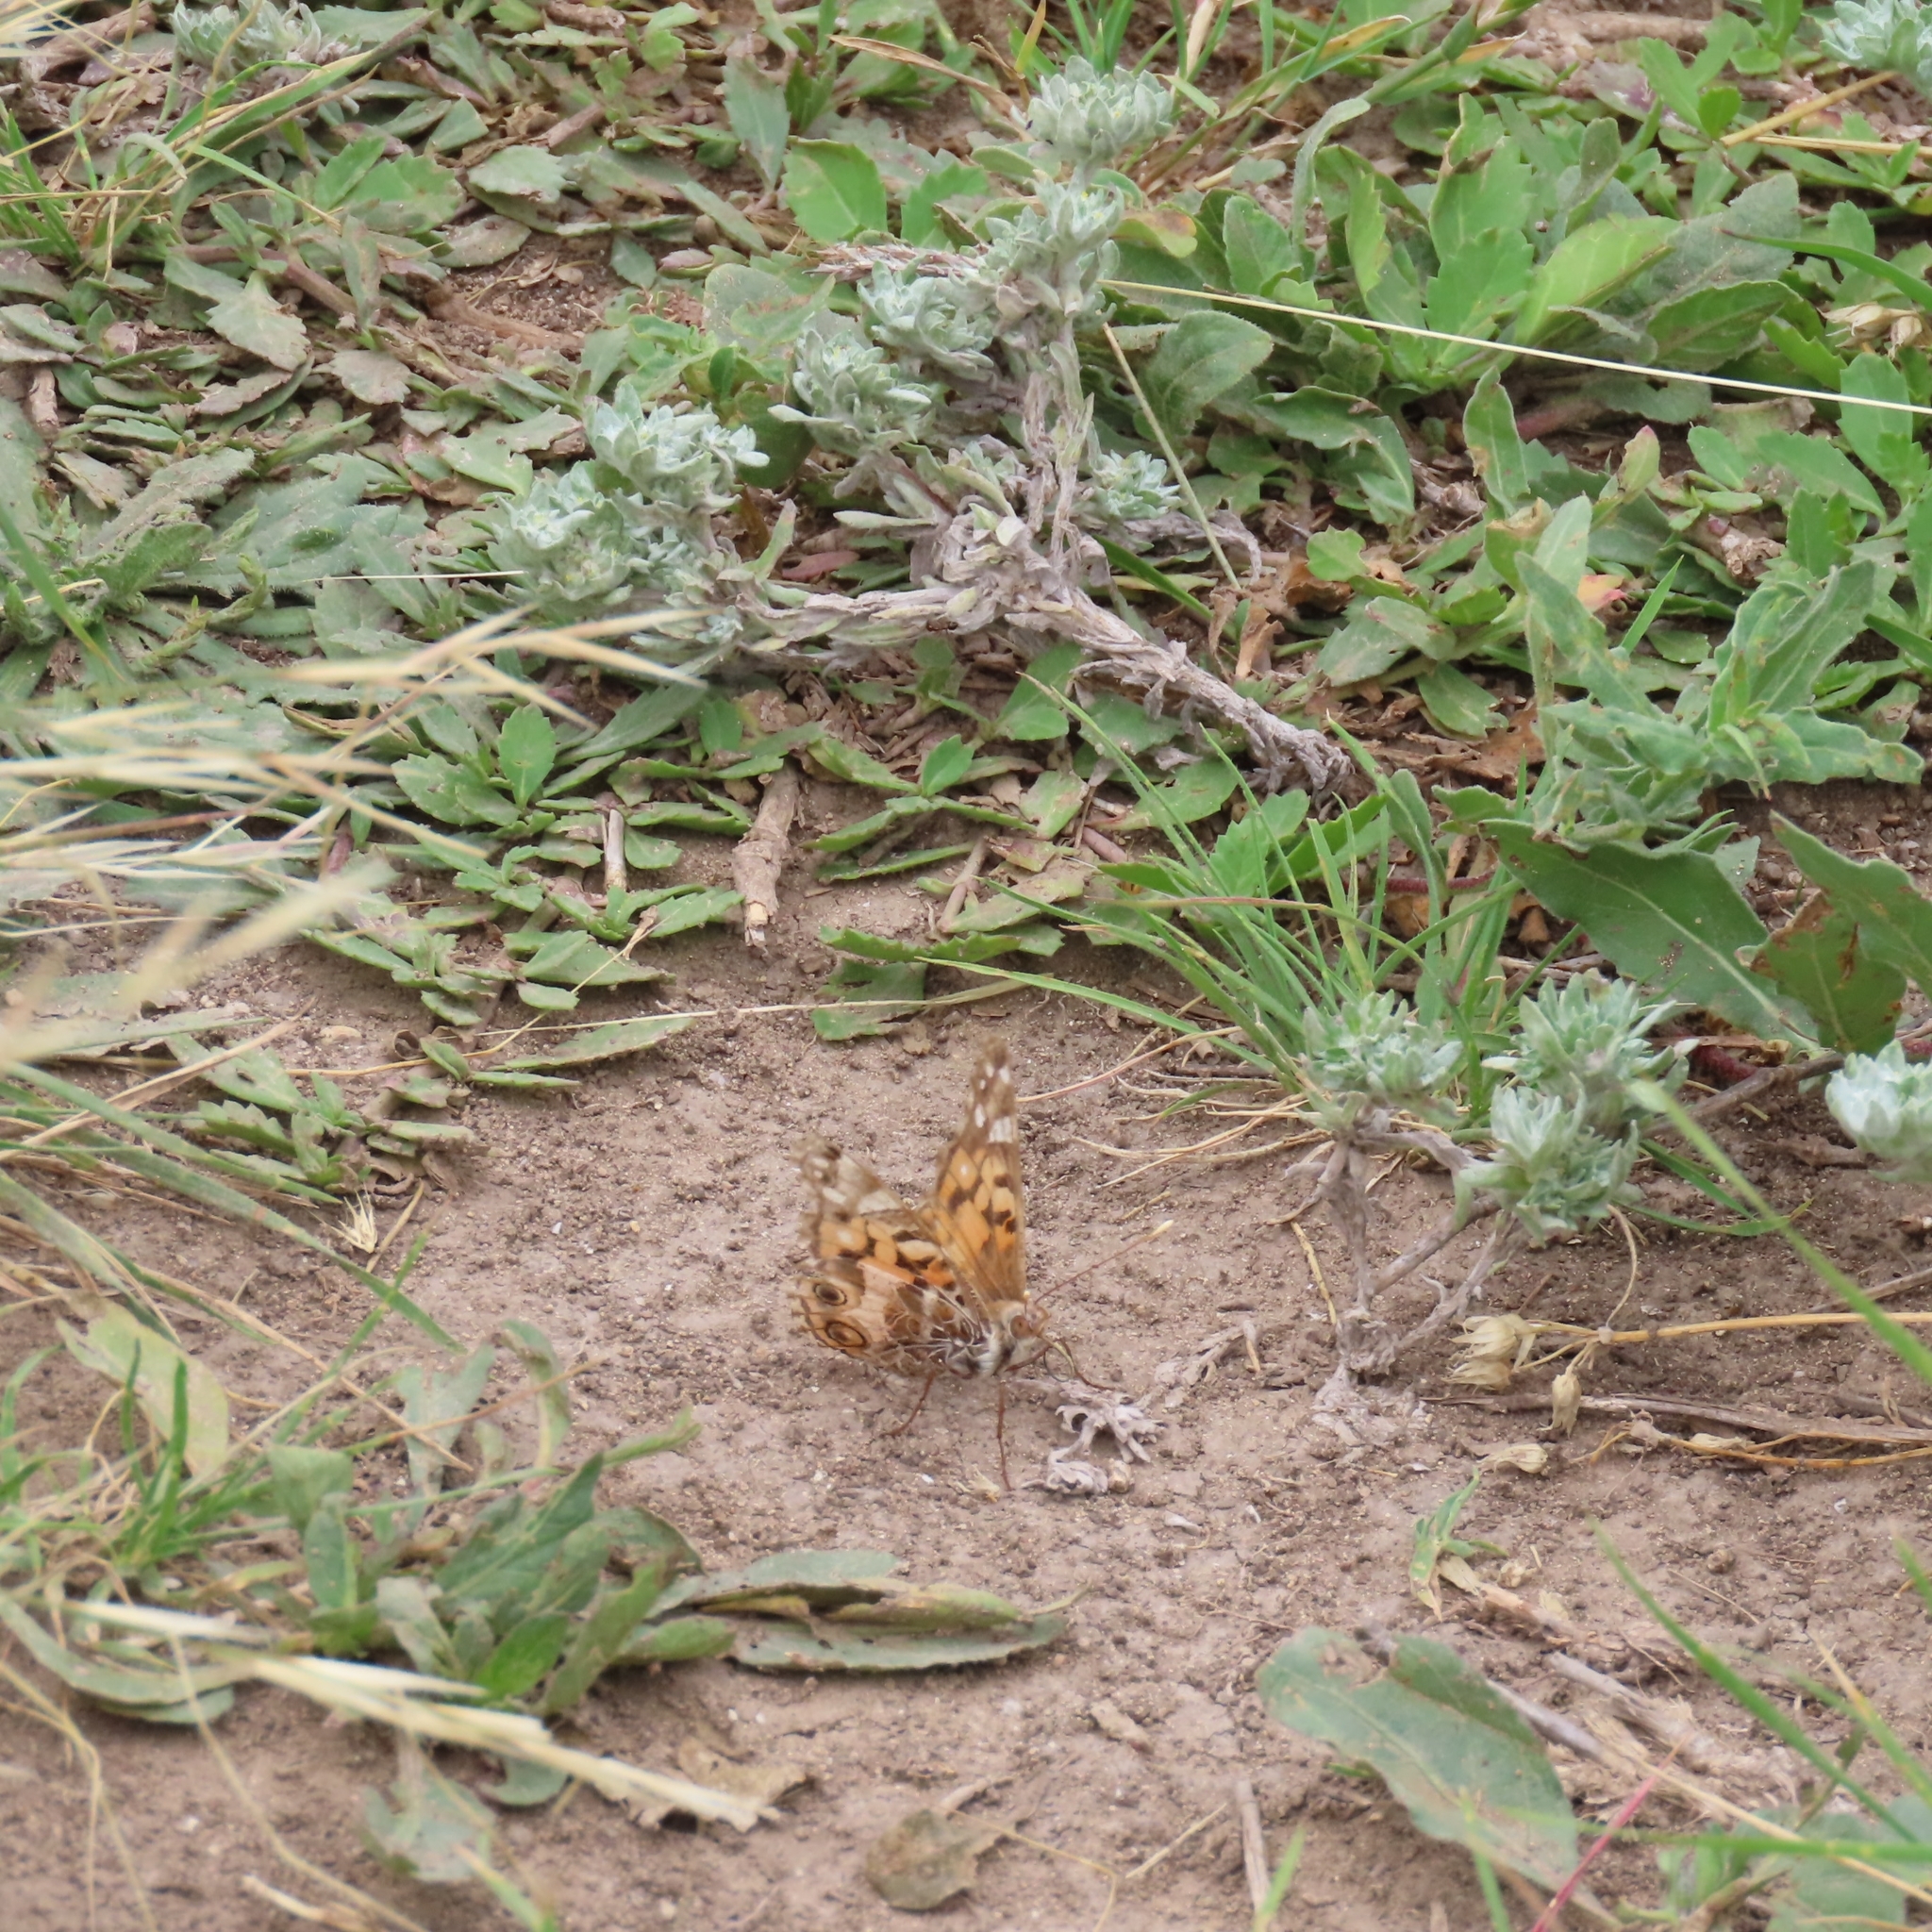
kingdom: Animalia
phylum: Arthropoda
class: Insecta
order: Lepidoptera
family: Nymphalidae
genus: Vanessa
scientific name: Vanessa virginiensis
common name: American lady
